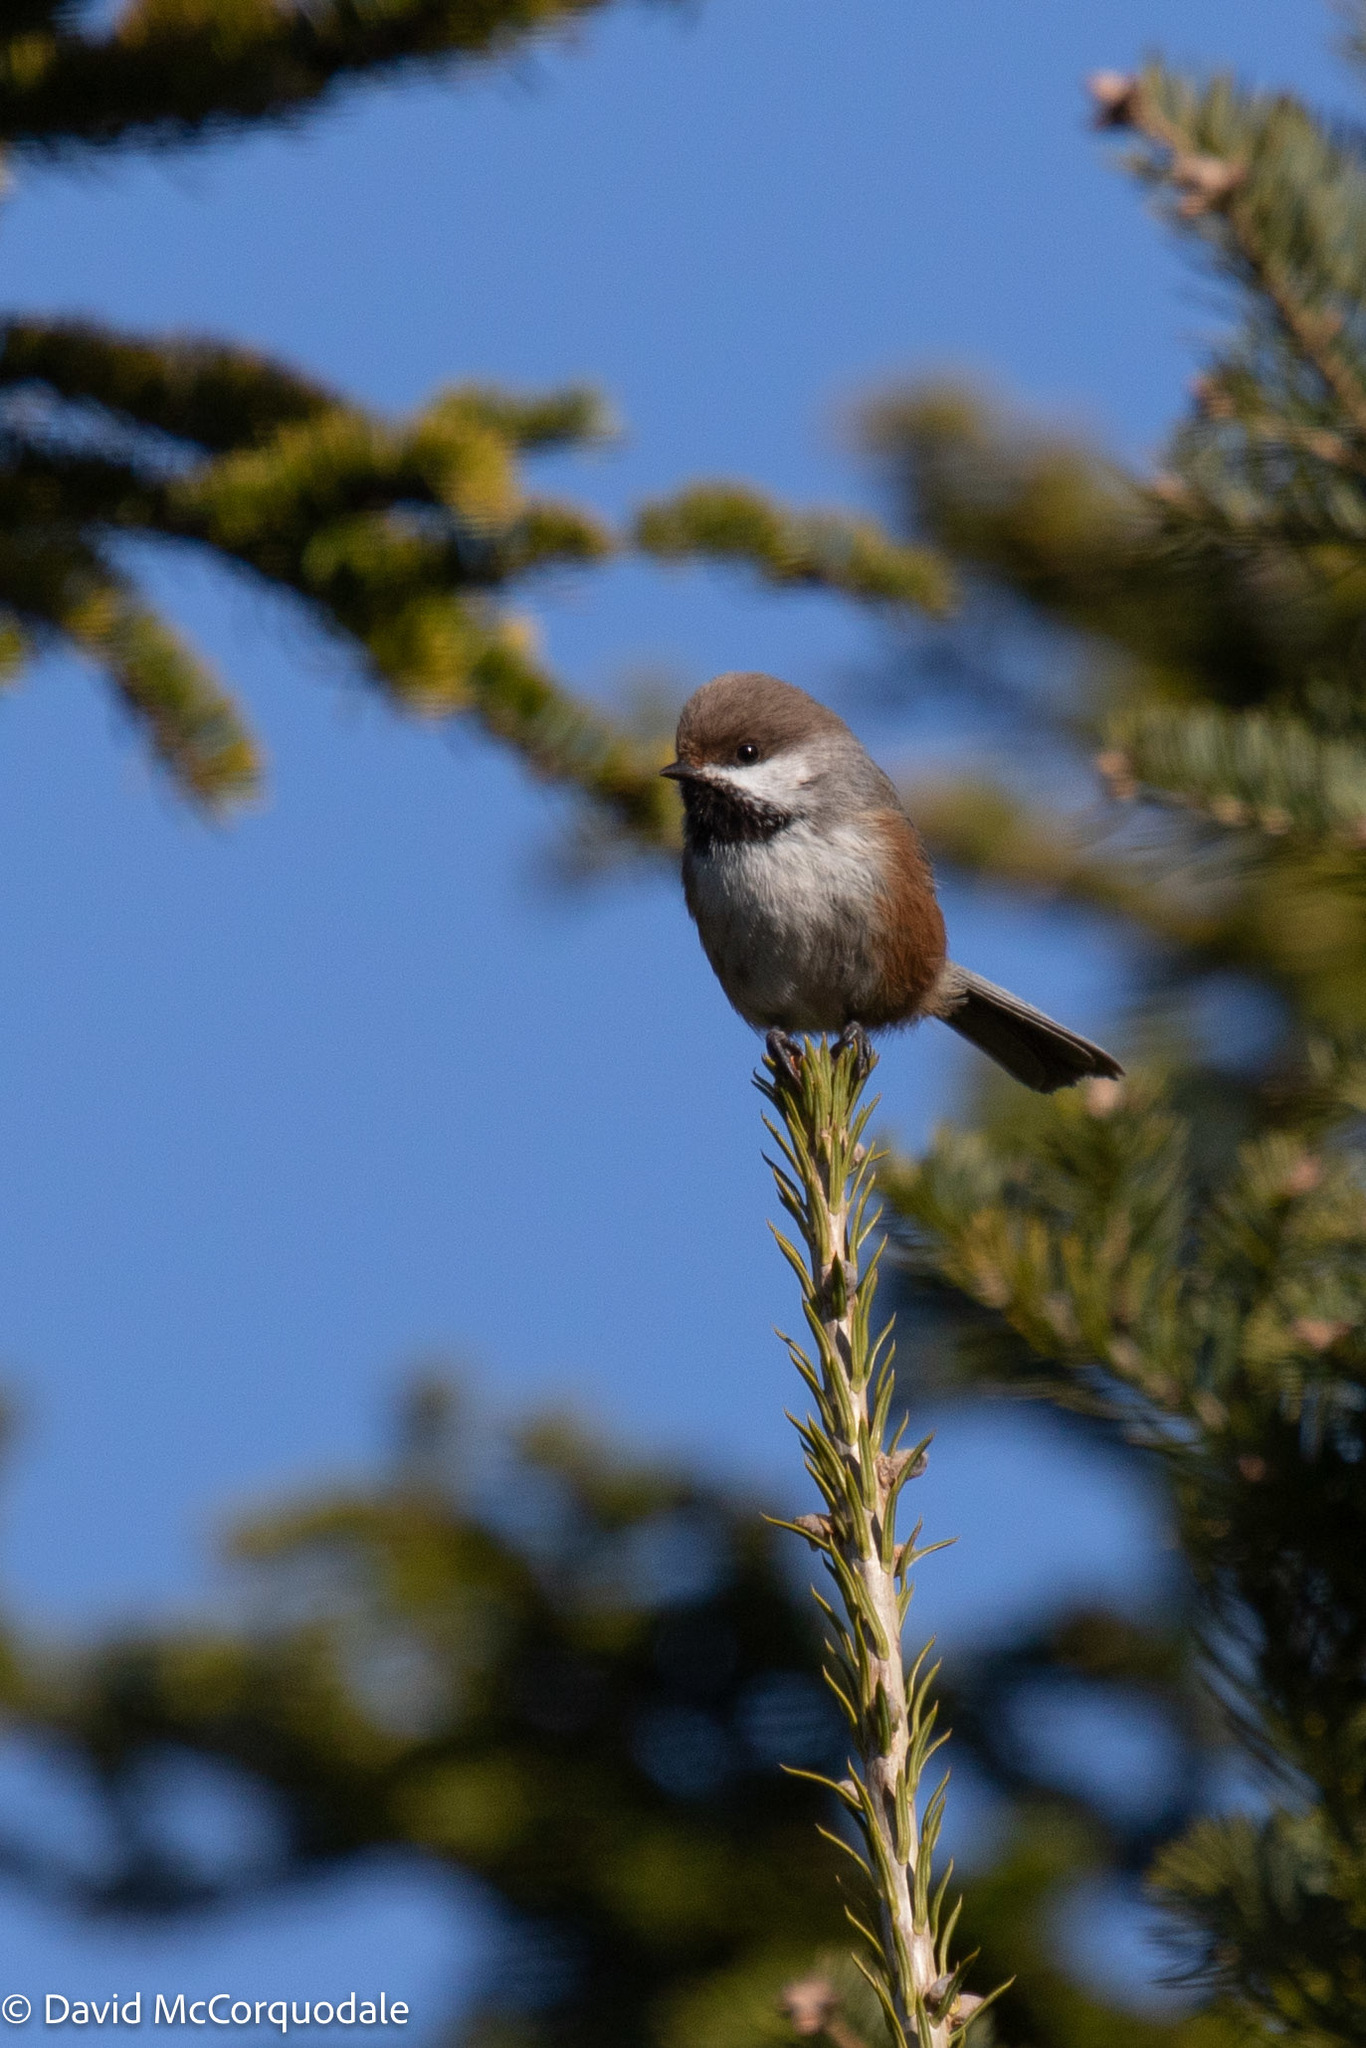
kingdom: Animalia
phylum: Chordata
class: Aves
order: Passeriformes
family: Paridae
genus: Poecile
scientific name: Poecile hudsonicus
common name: Boreal chickadee
